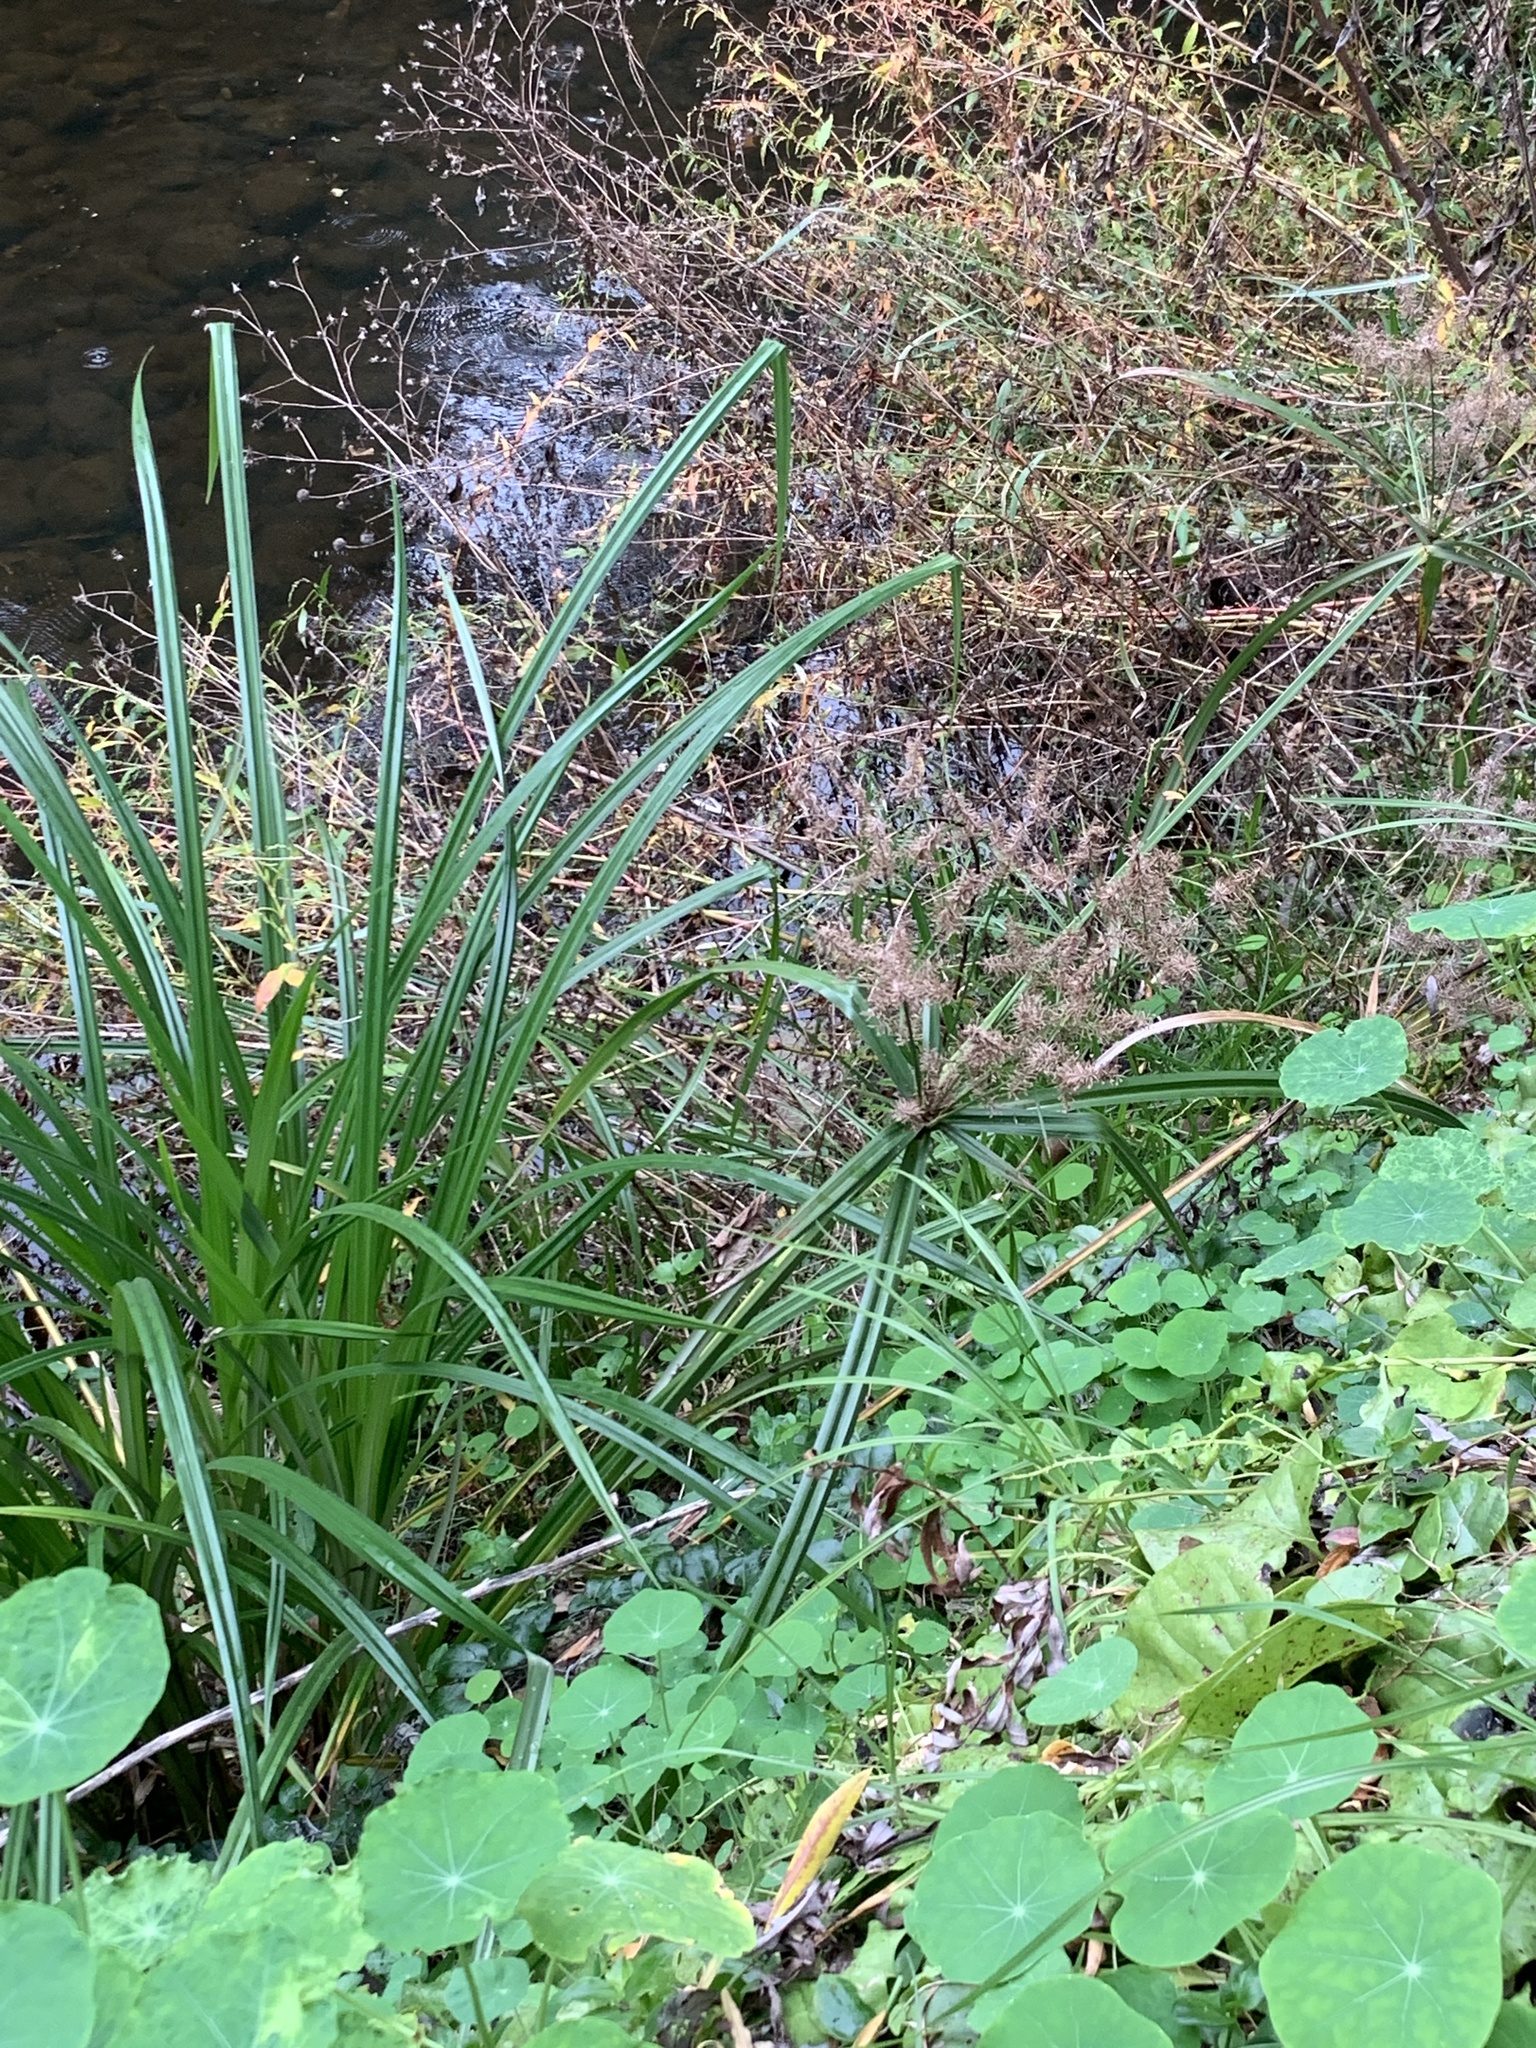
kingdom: Plantae
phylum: Tracheophyta
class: Liliopsida
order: Poales
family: Cyperaceae
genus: Cyperus
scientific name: Cyperus dives
